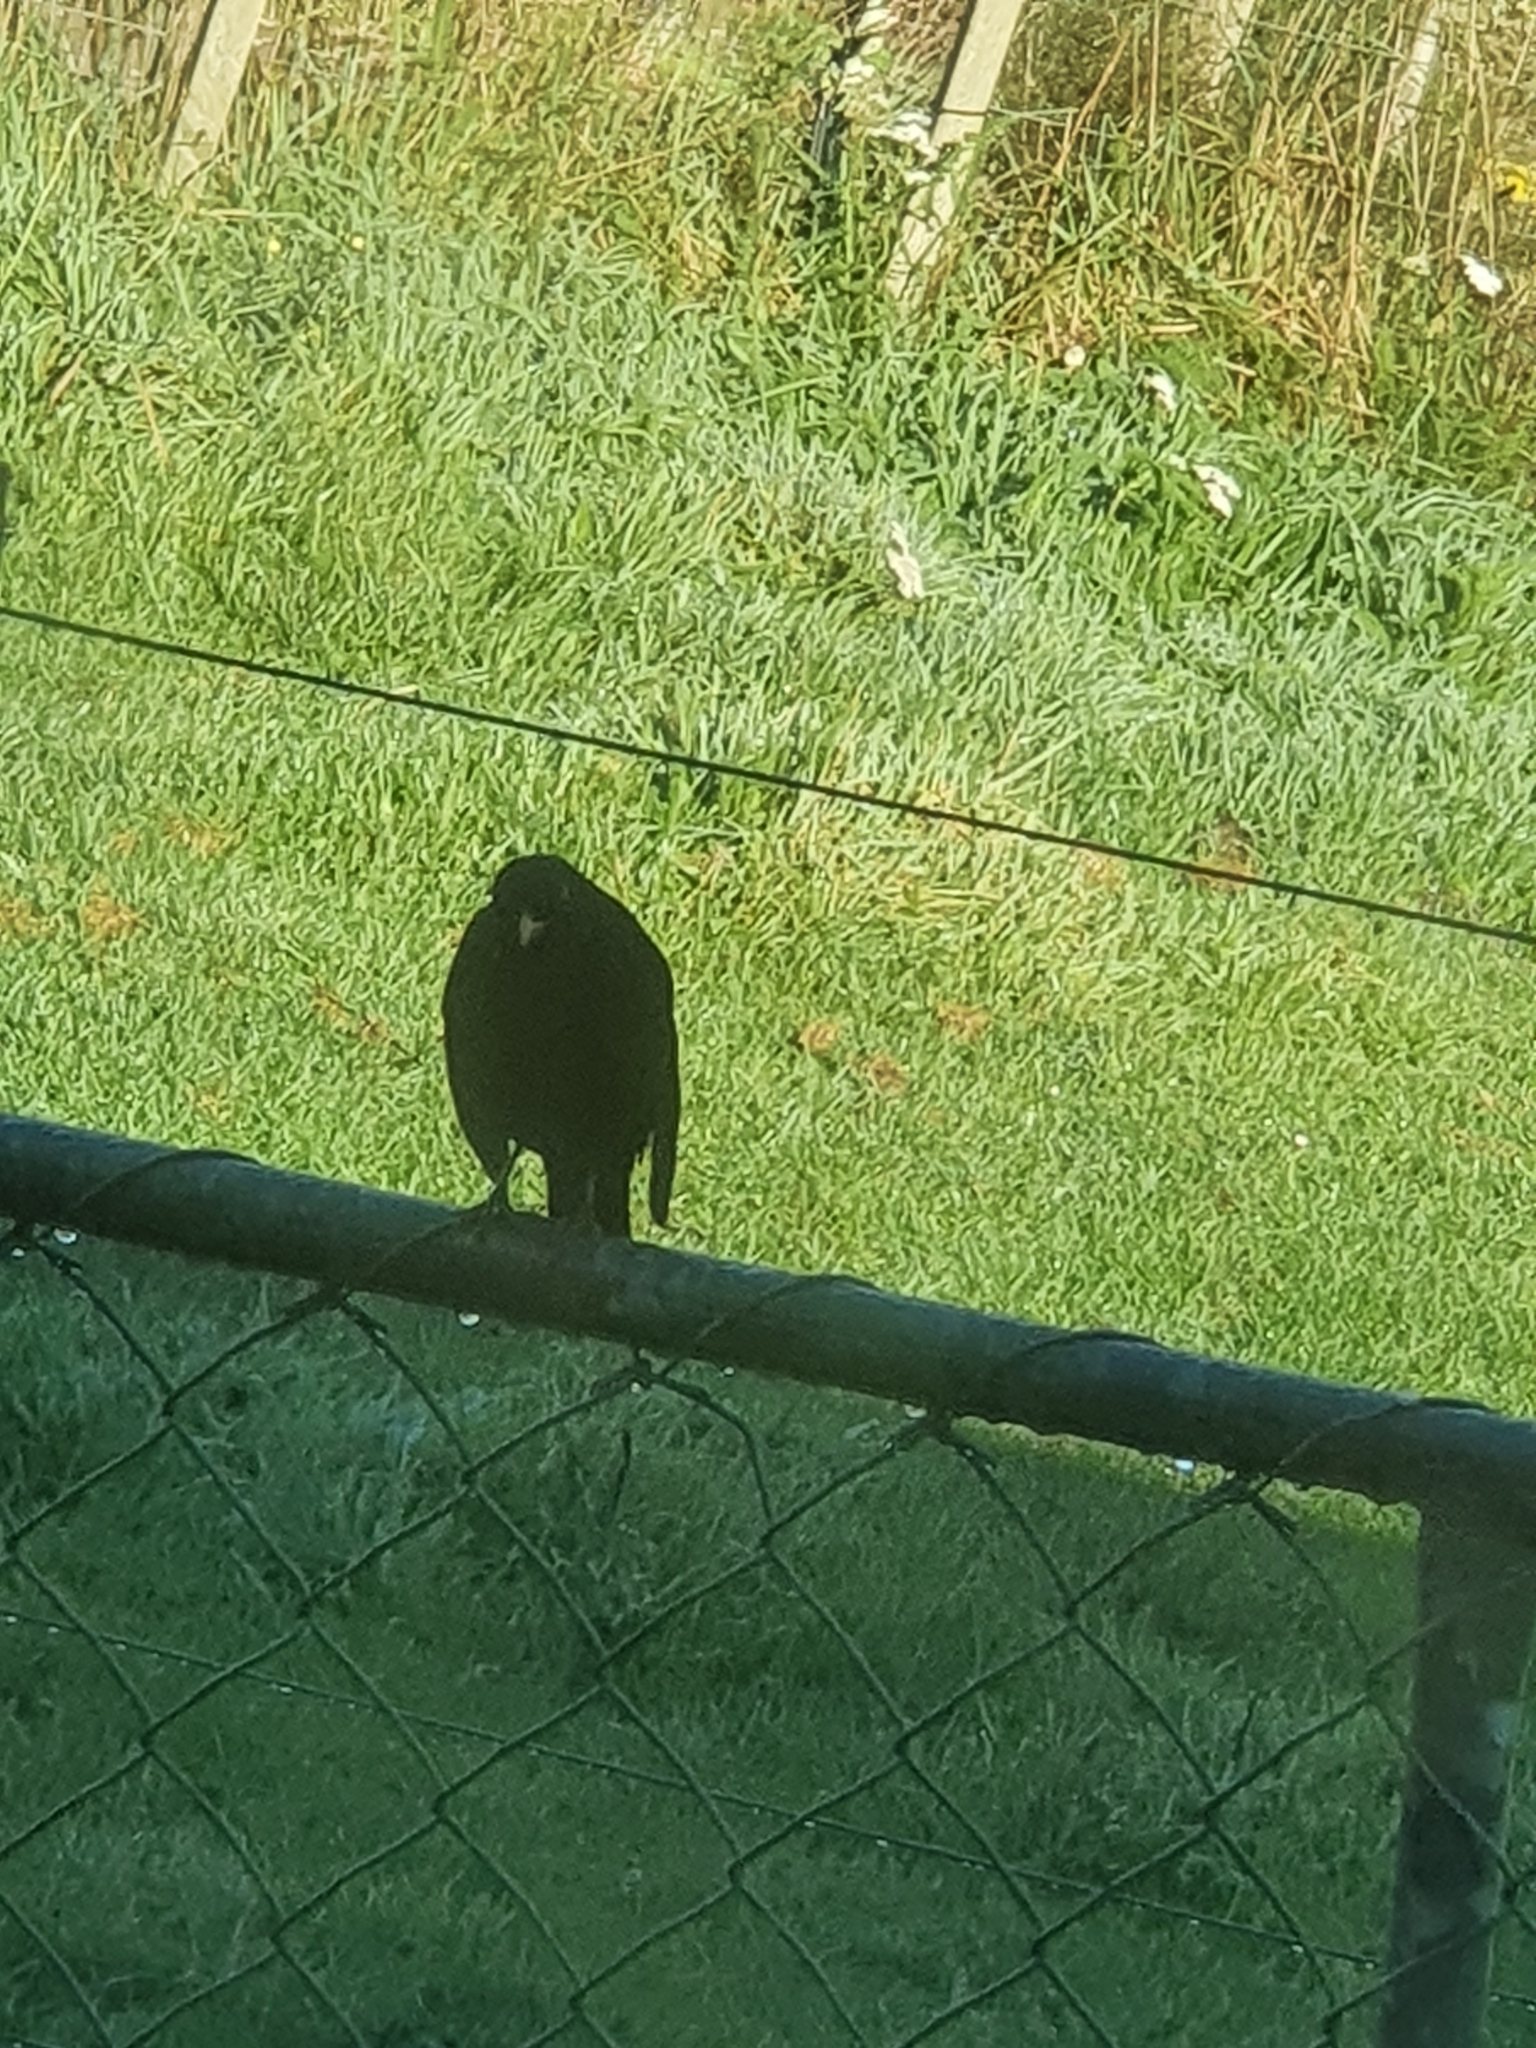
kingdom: Animalia
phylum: Chordata
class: Aves
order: Passeriformes
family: Turdidae
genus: Turdus
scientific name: Turdus merula
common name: Common blackbird
